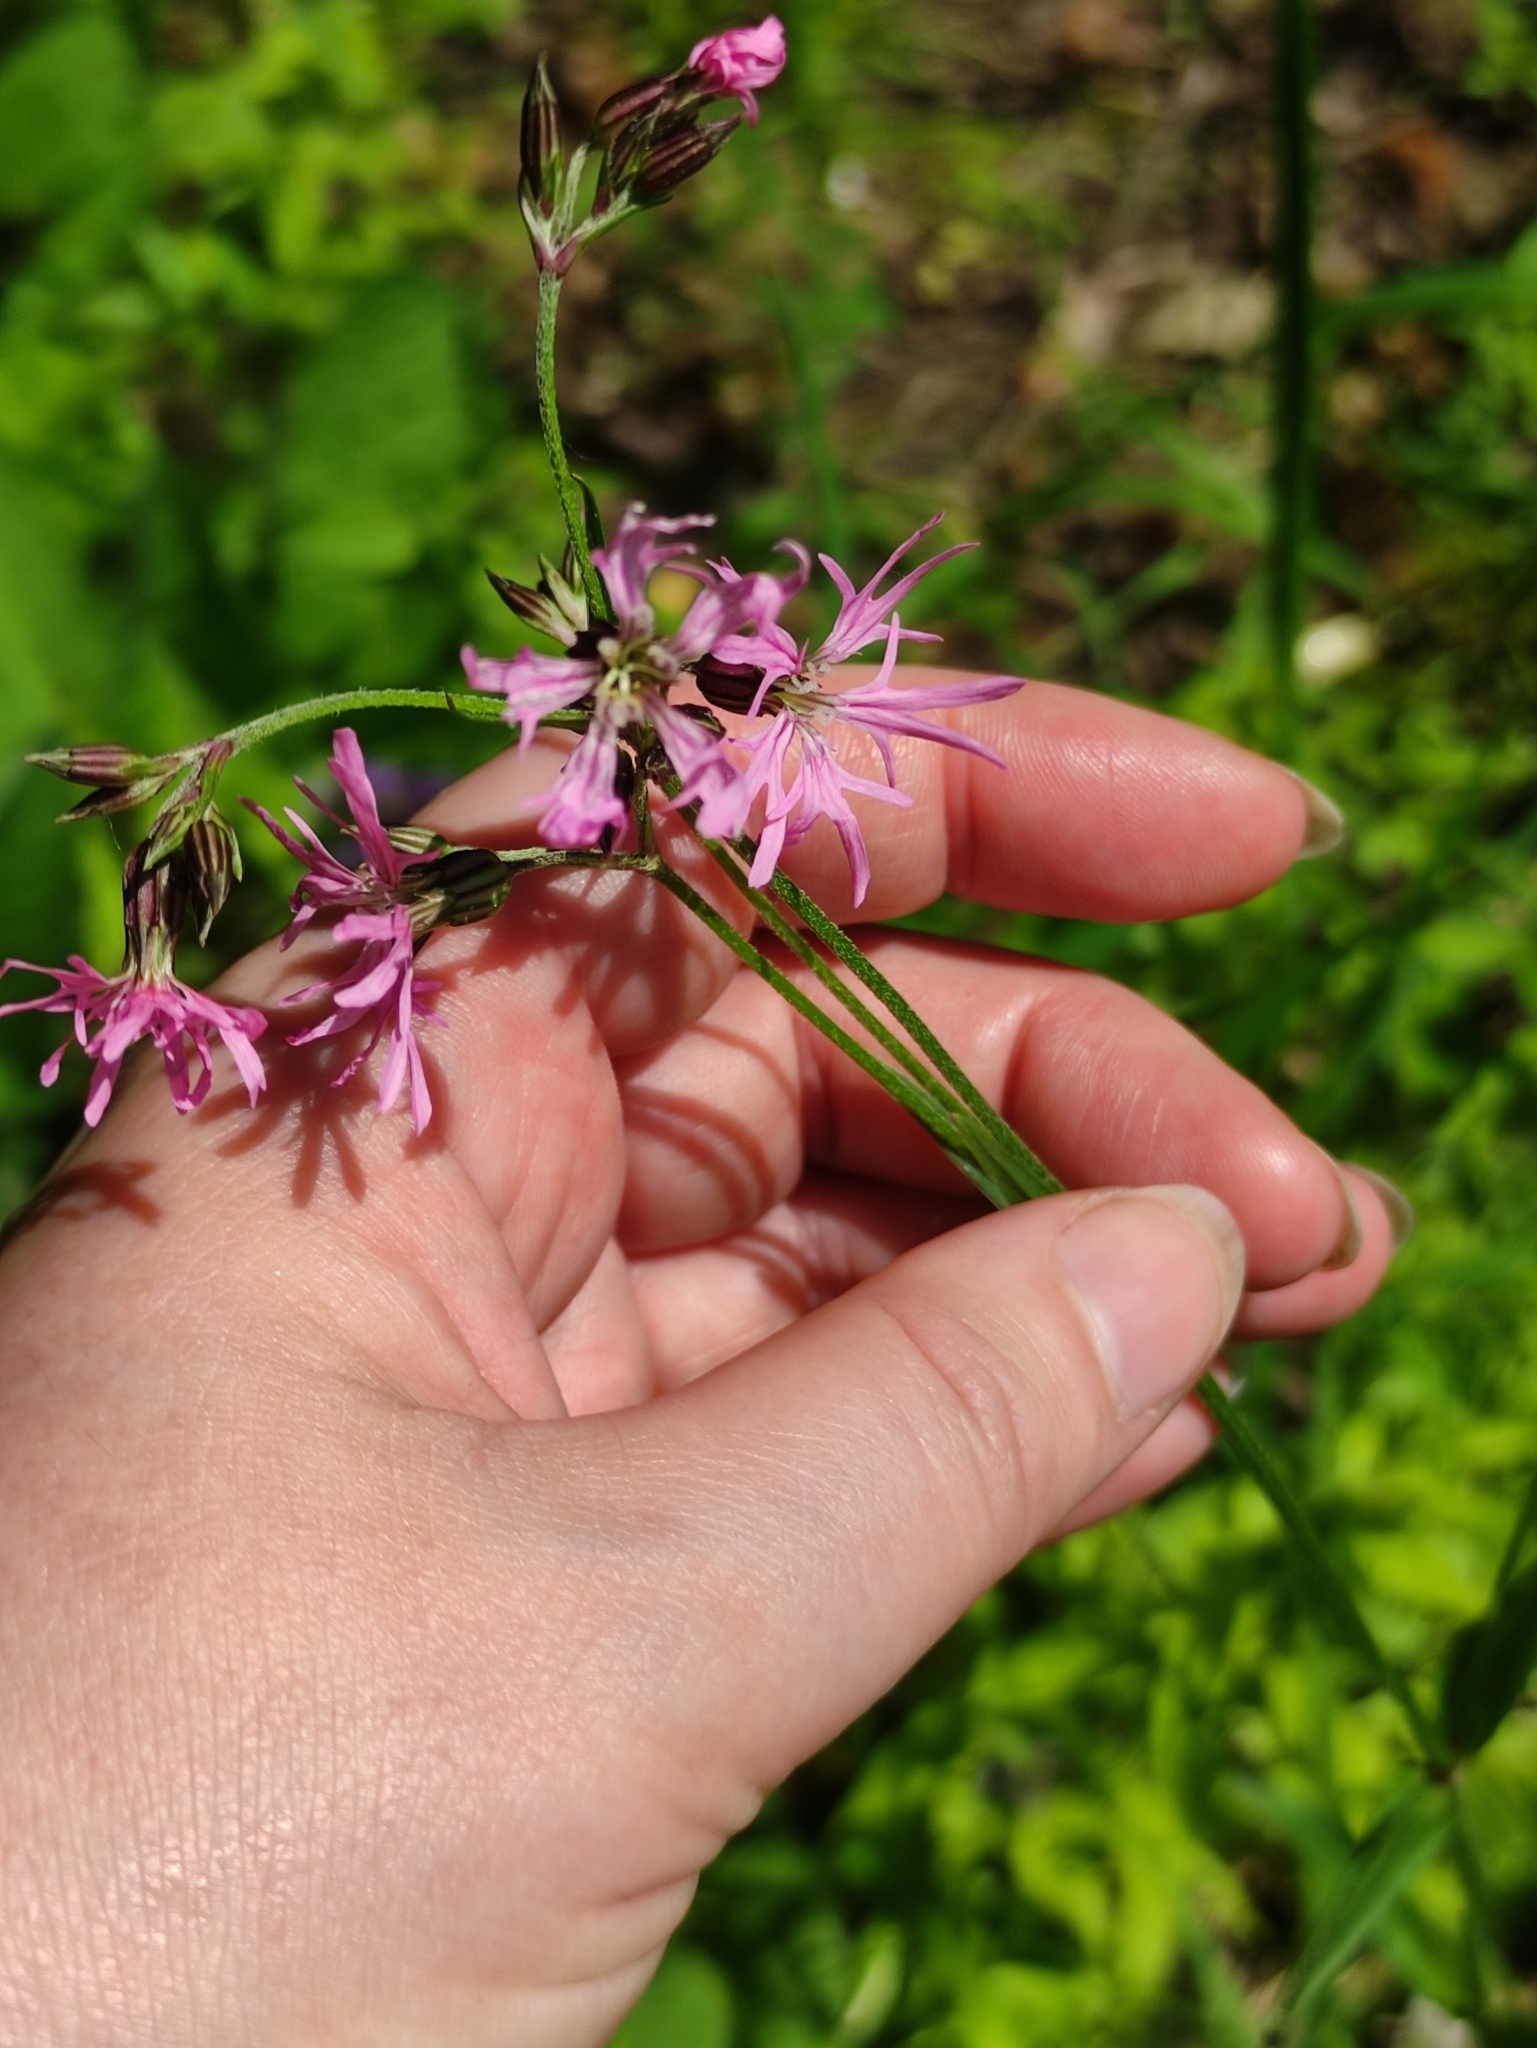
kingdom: Plantae
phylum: Tracheophyta
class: Magnoliopsida
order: Caryophyllales
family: Caryophyllaceae
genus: Silene
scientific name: Silene flos-cuculi
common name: Ragged-robin
